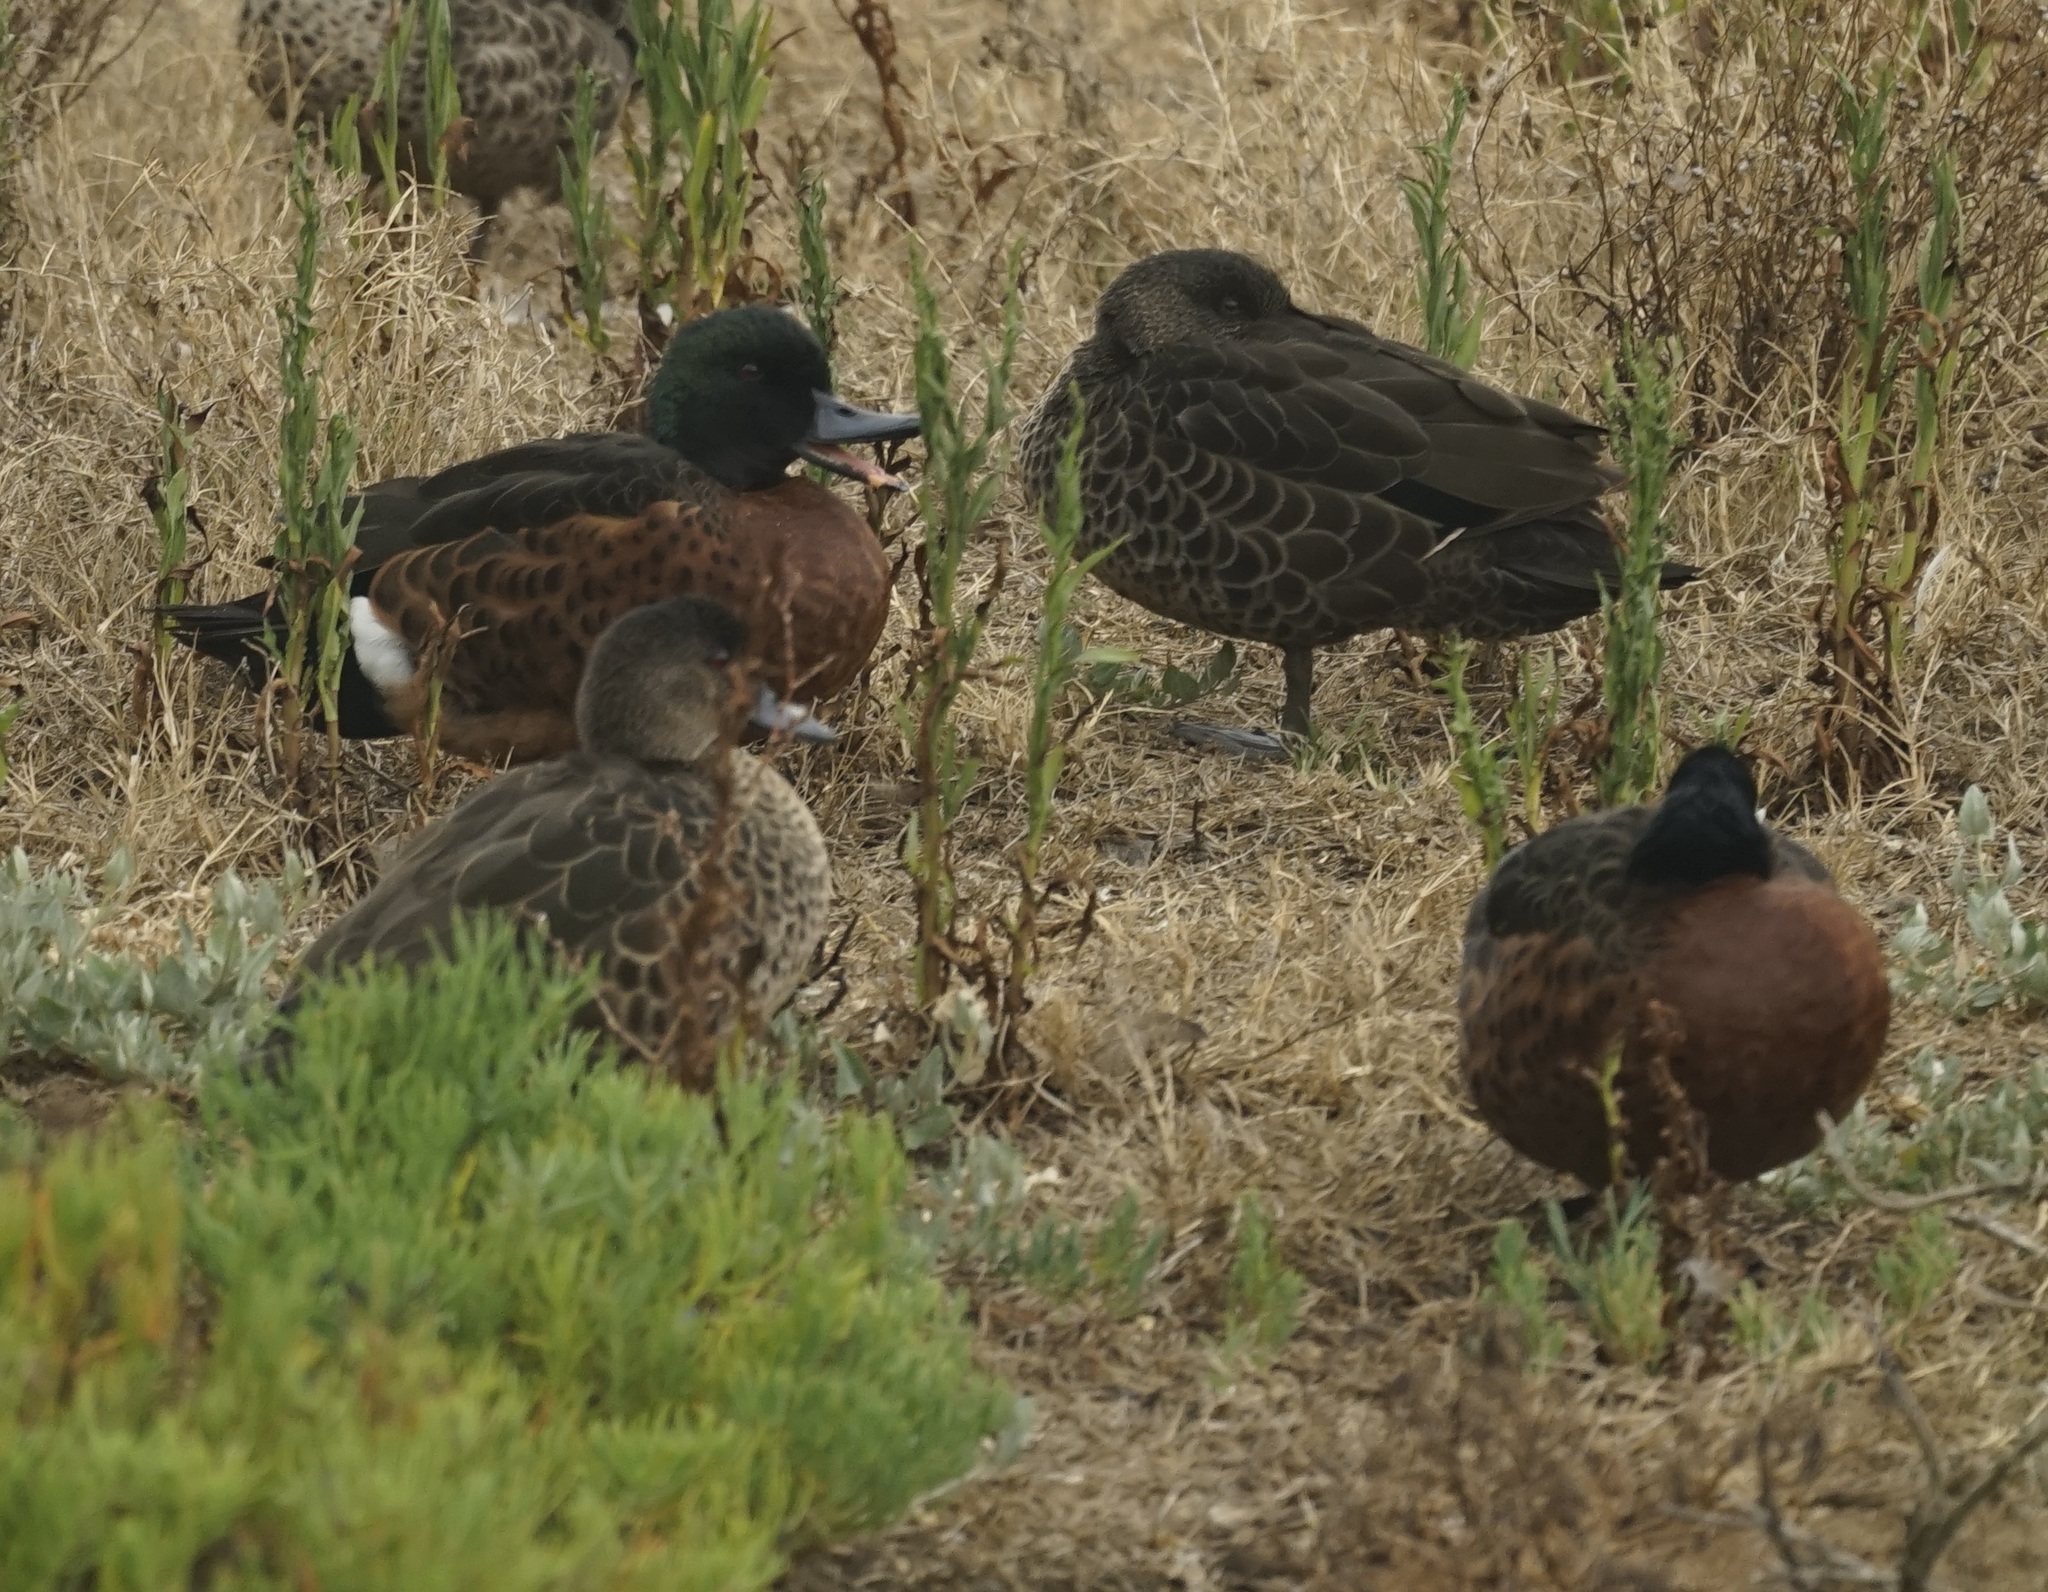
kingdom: Animalia
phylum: Chordata
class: Aves
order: Anseriformes
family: Anatidae
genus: Anas
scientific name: Anas castanea
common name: Chestnut teal
